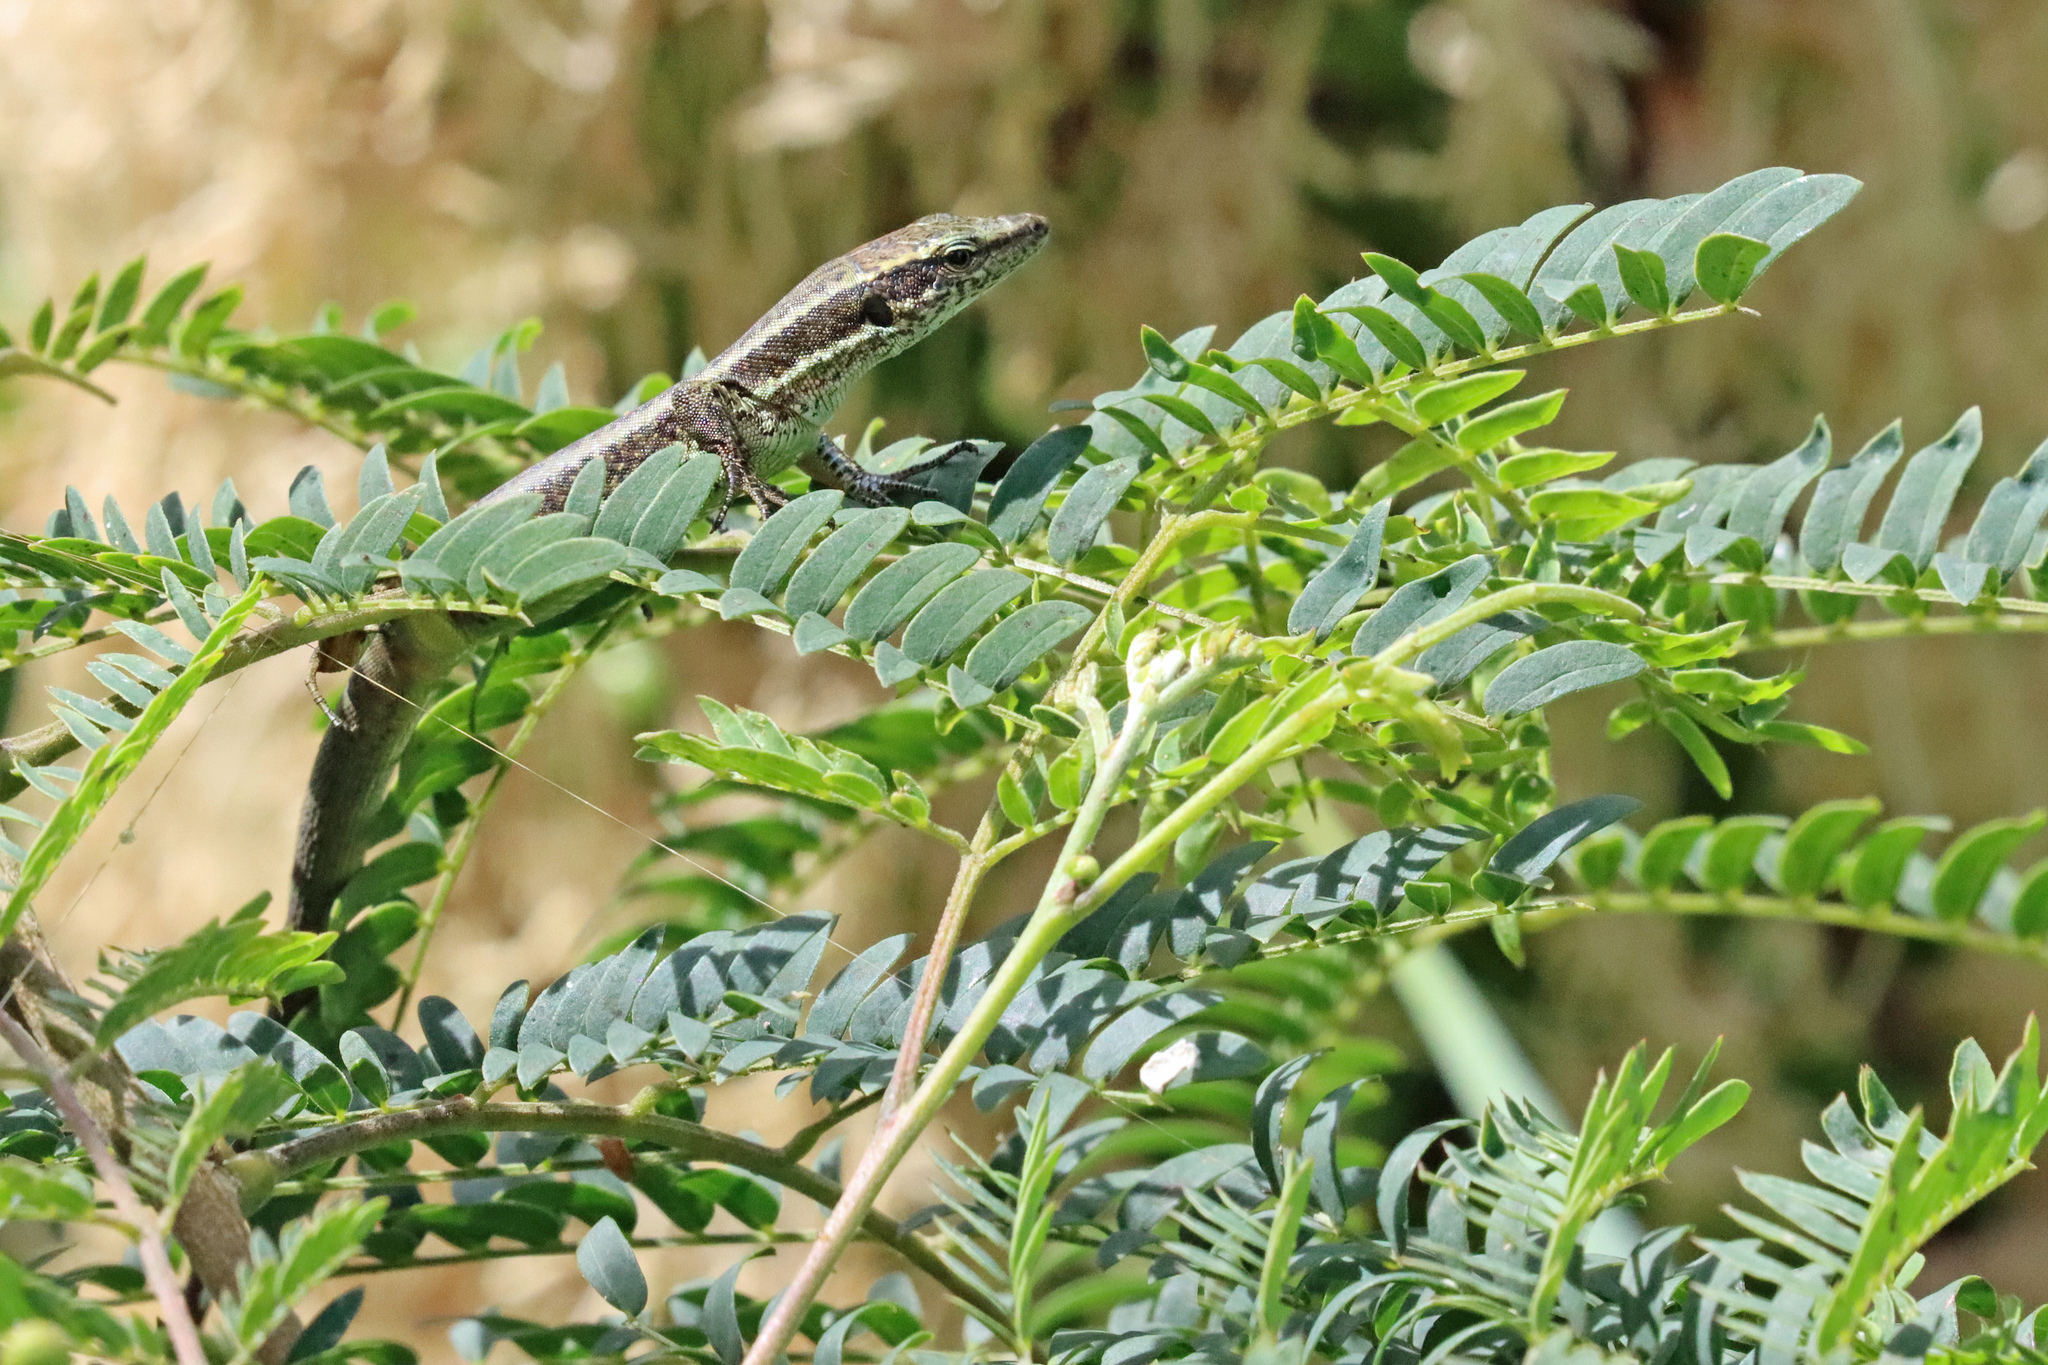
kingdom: Animalia
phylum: Chordata
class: Squamata
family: Lacertidae
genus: Teira
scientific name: Teira dugesii
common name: Madeira lizard
